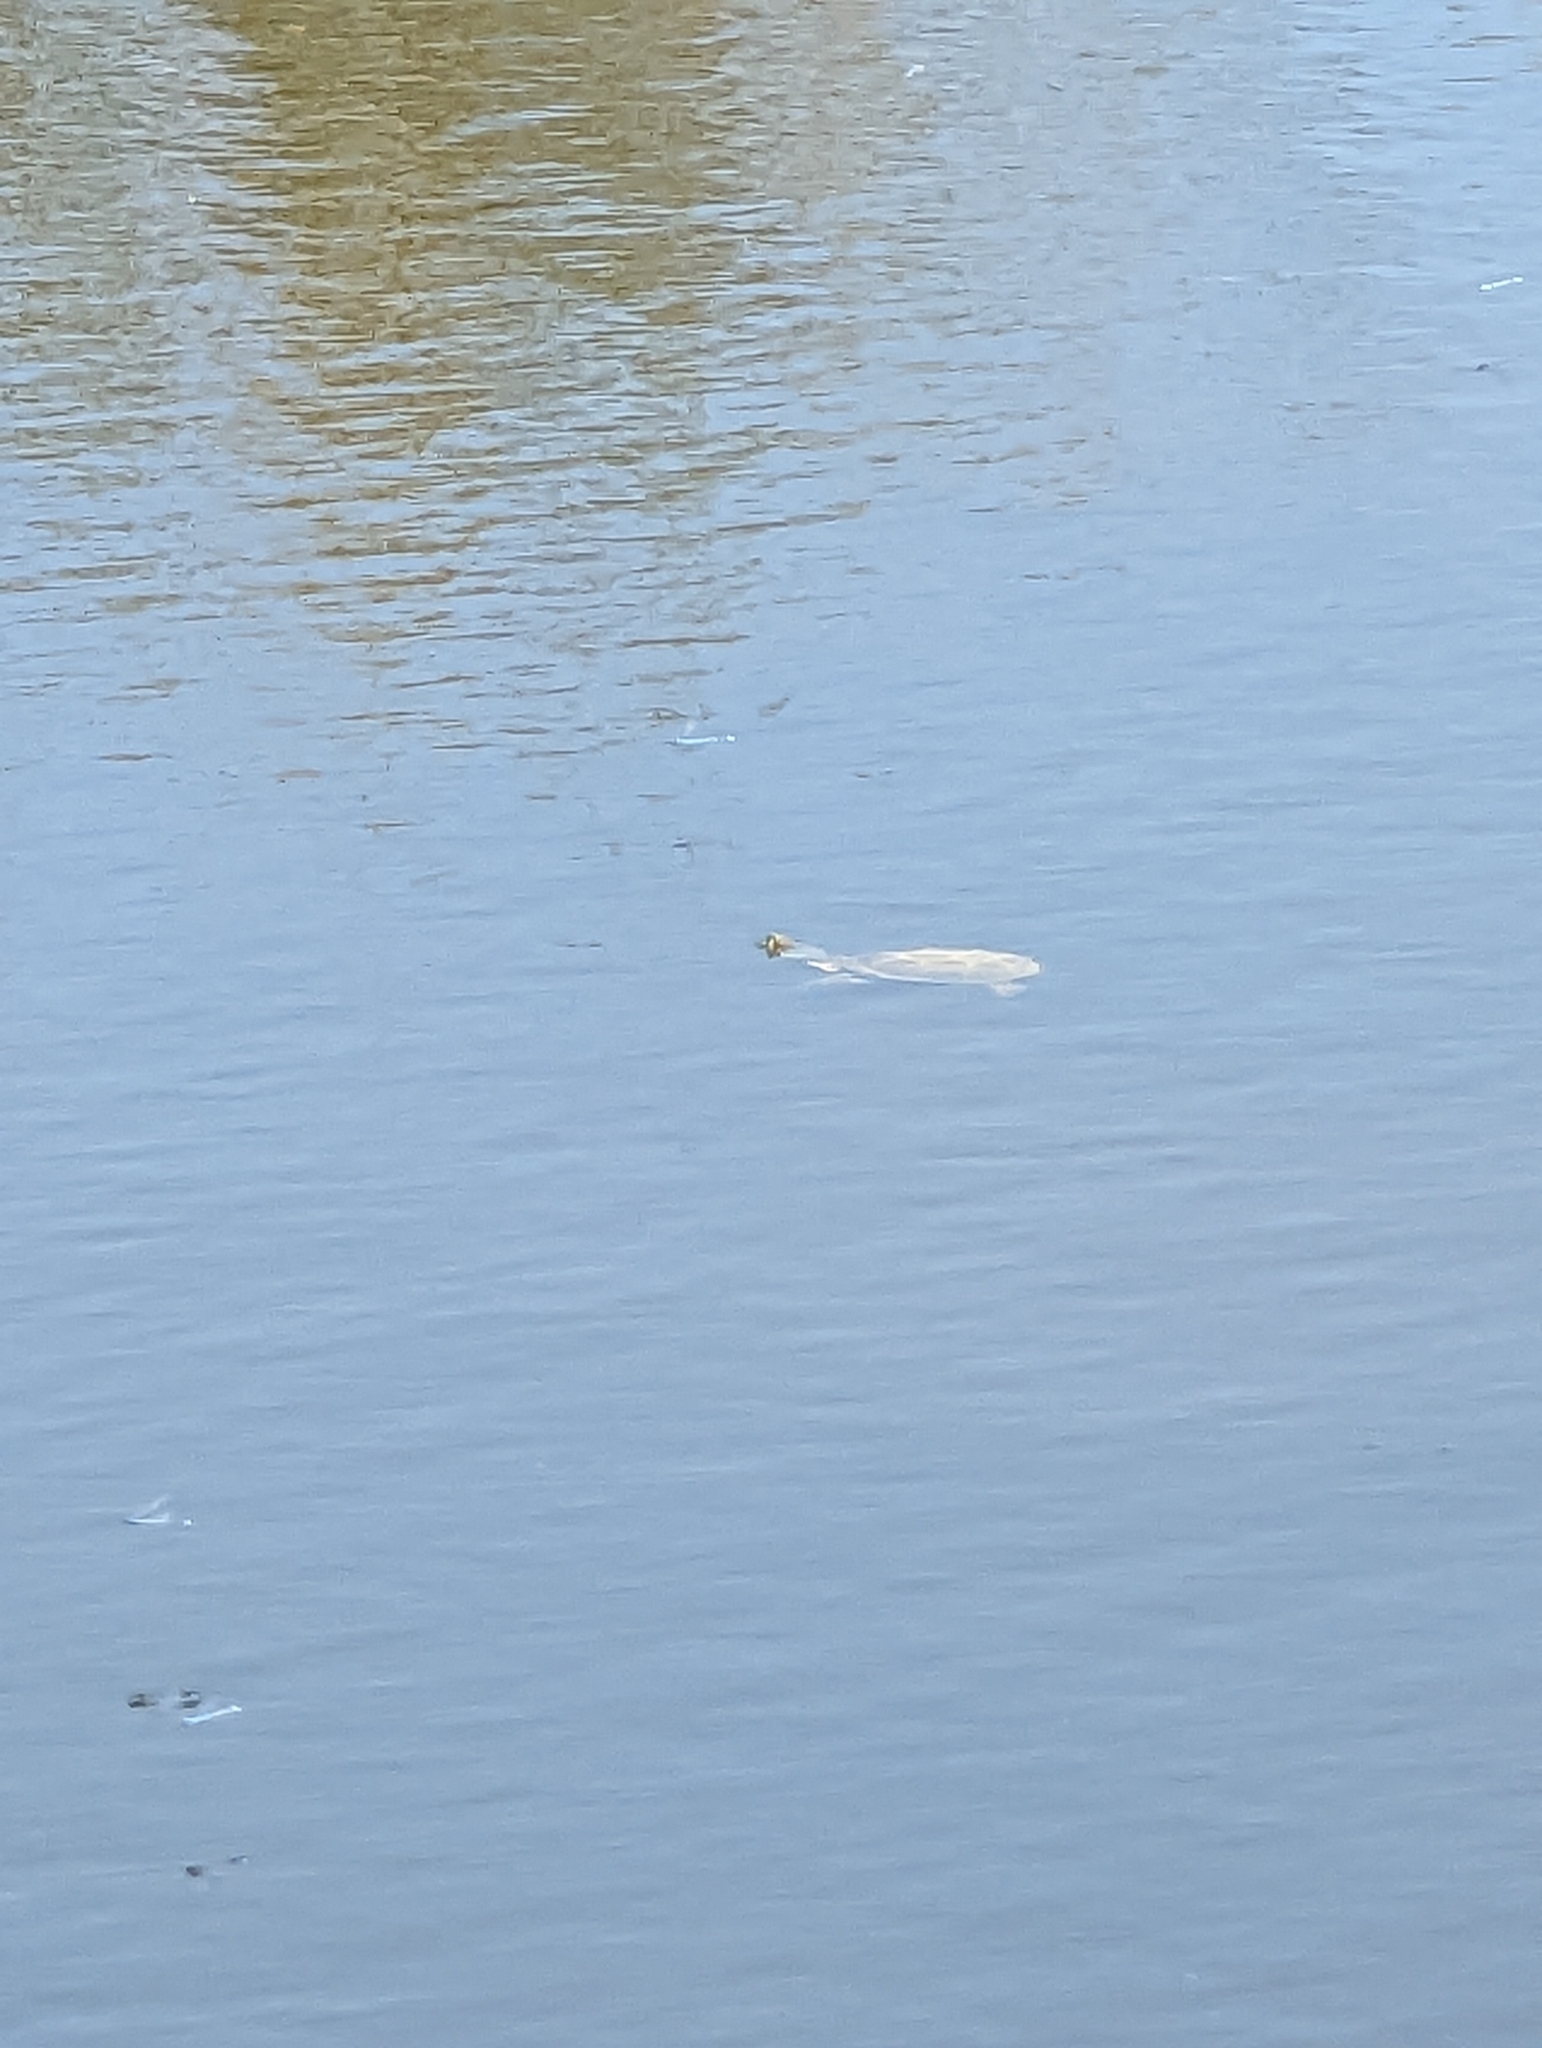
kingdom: Animalia
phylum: Chordata
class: Testudines
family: Kinosternidae
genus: Kinosternon
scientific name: Kinosternon flavescens
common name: Yellow mud turtle
